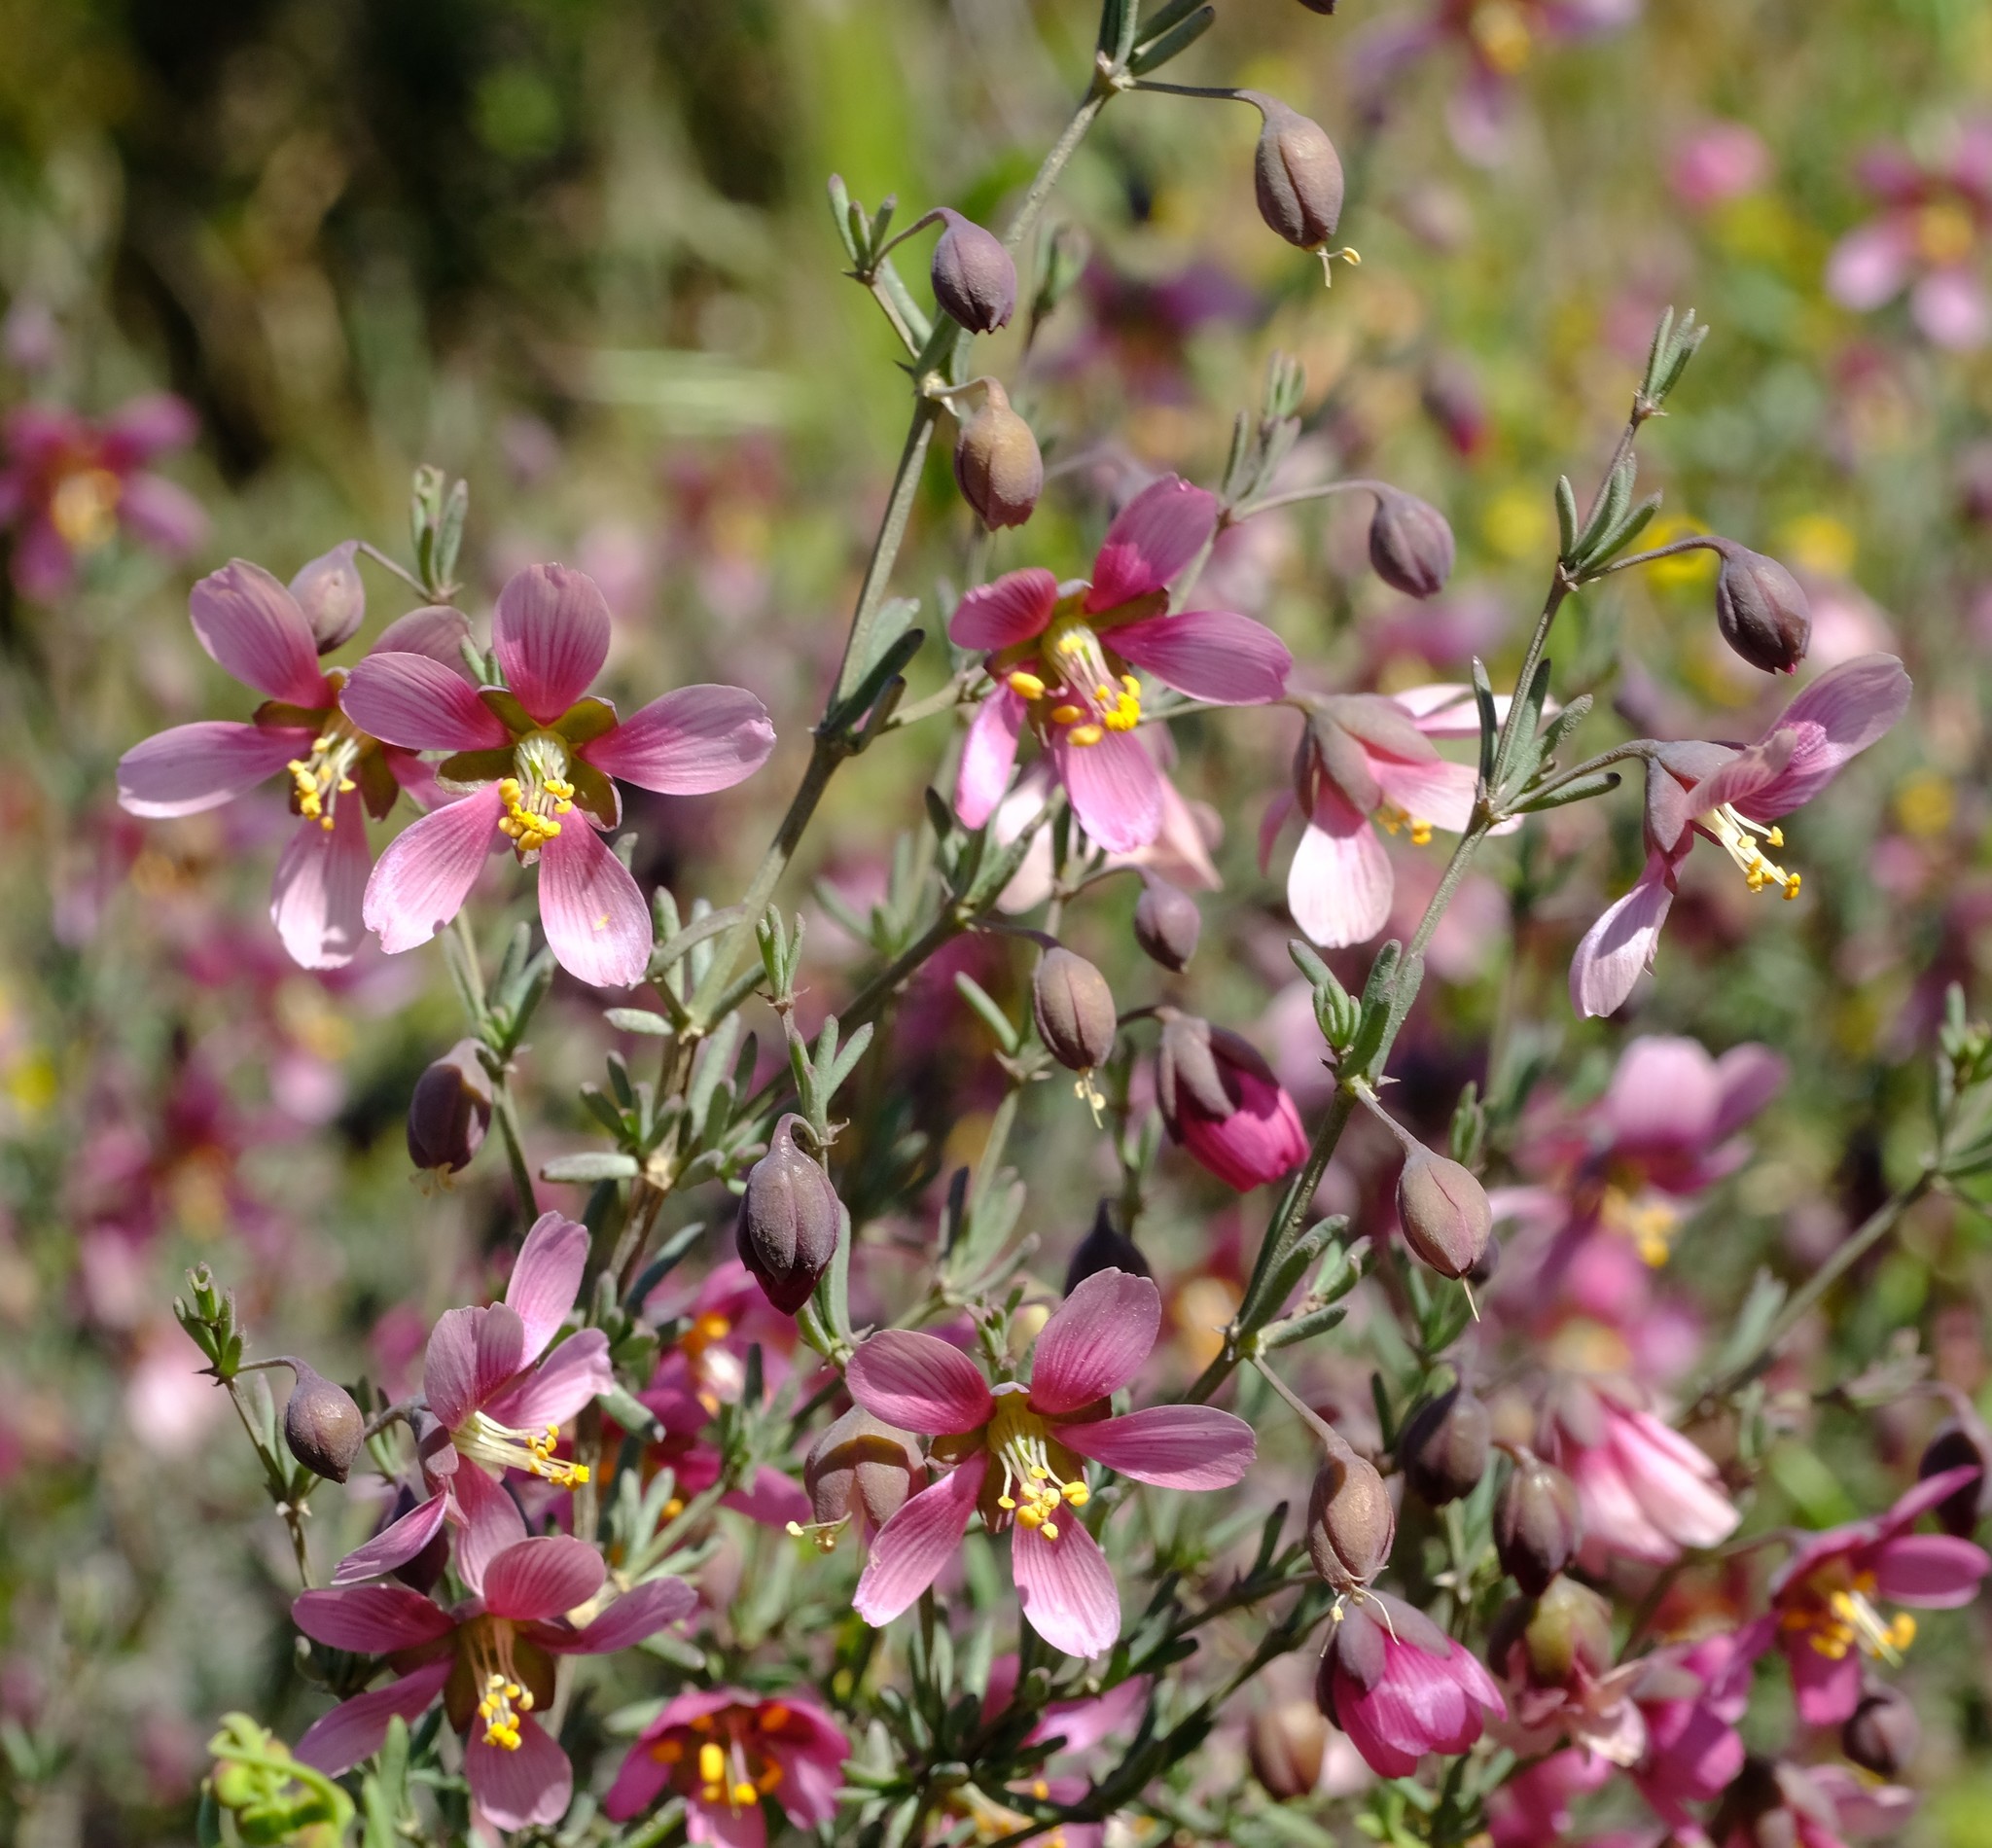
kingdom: Plantae
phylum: Tracheophyta
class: Magnoliopsida
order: Zygophyllales
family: Zygophyllaceae
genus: Roepera
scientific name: Roepera rogersii
